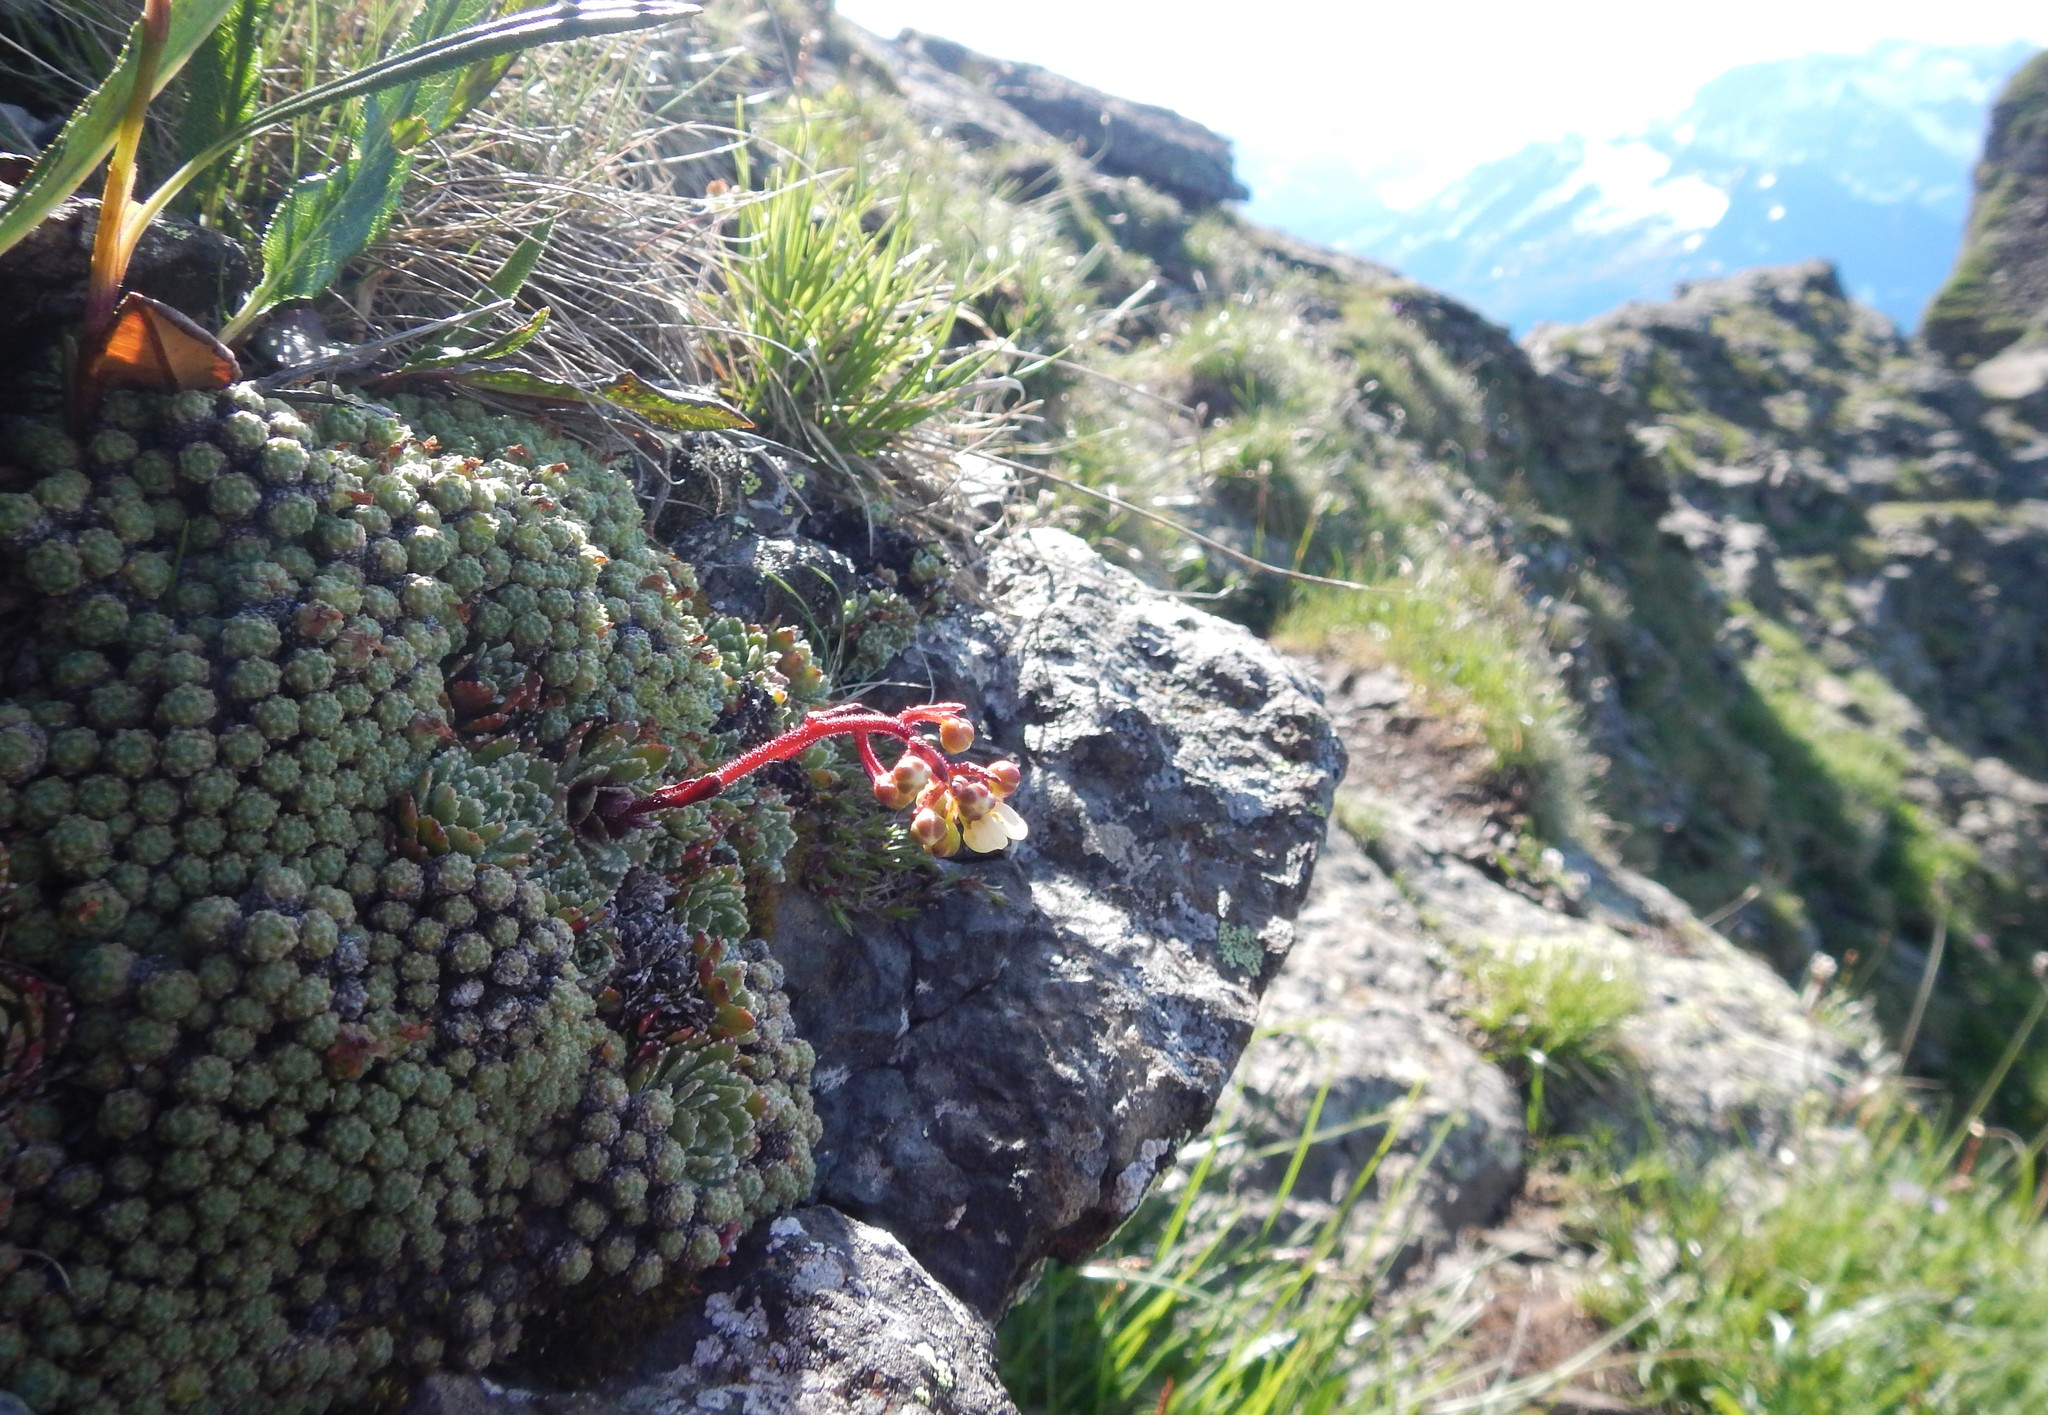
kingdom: Plantae
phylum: Tracheophyta
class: Magnoliopsida
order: Saxifragales
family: Saxifragaceae
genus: Saxifraga
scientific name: Saxifraga paniculata
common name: Livelong saxifrage
